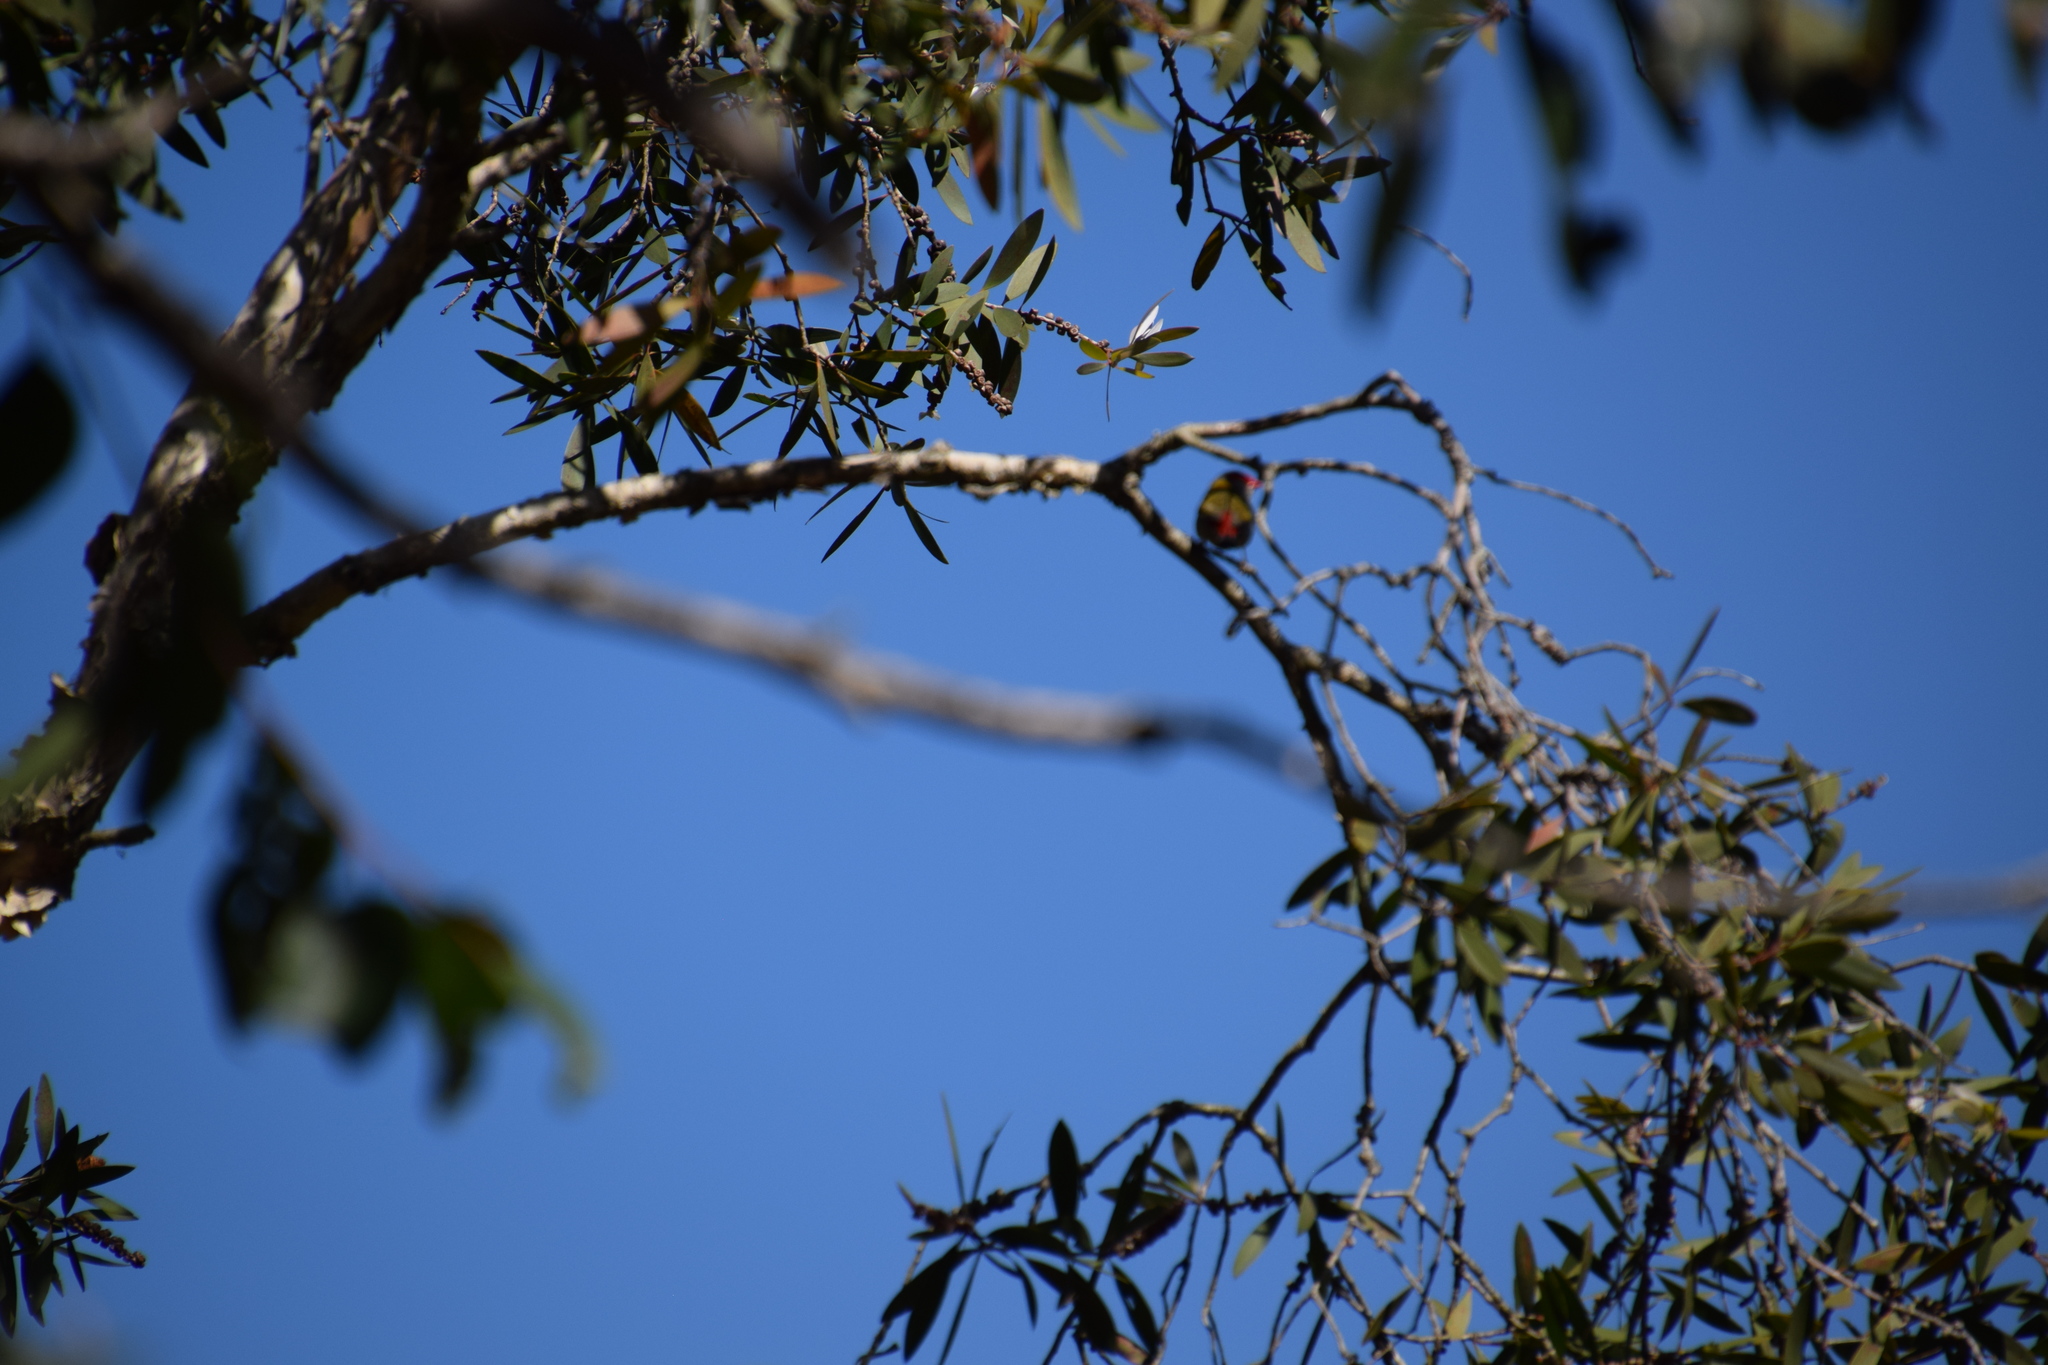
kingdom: Animalia
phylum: Chordata
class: Aves
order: Passeriformes
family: Estrildidae
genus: Neochmia
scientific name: Neochmia temporalis
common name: Red-browed finch
